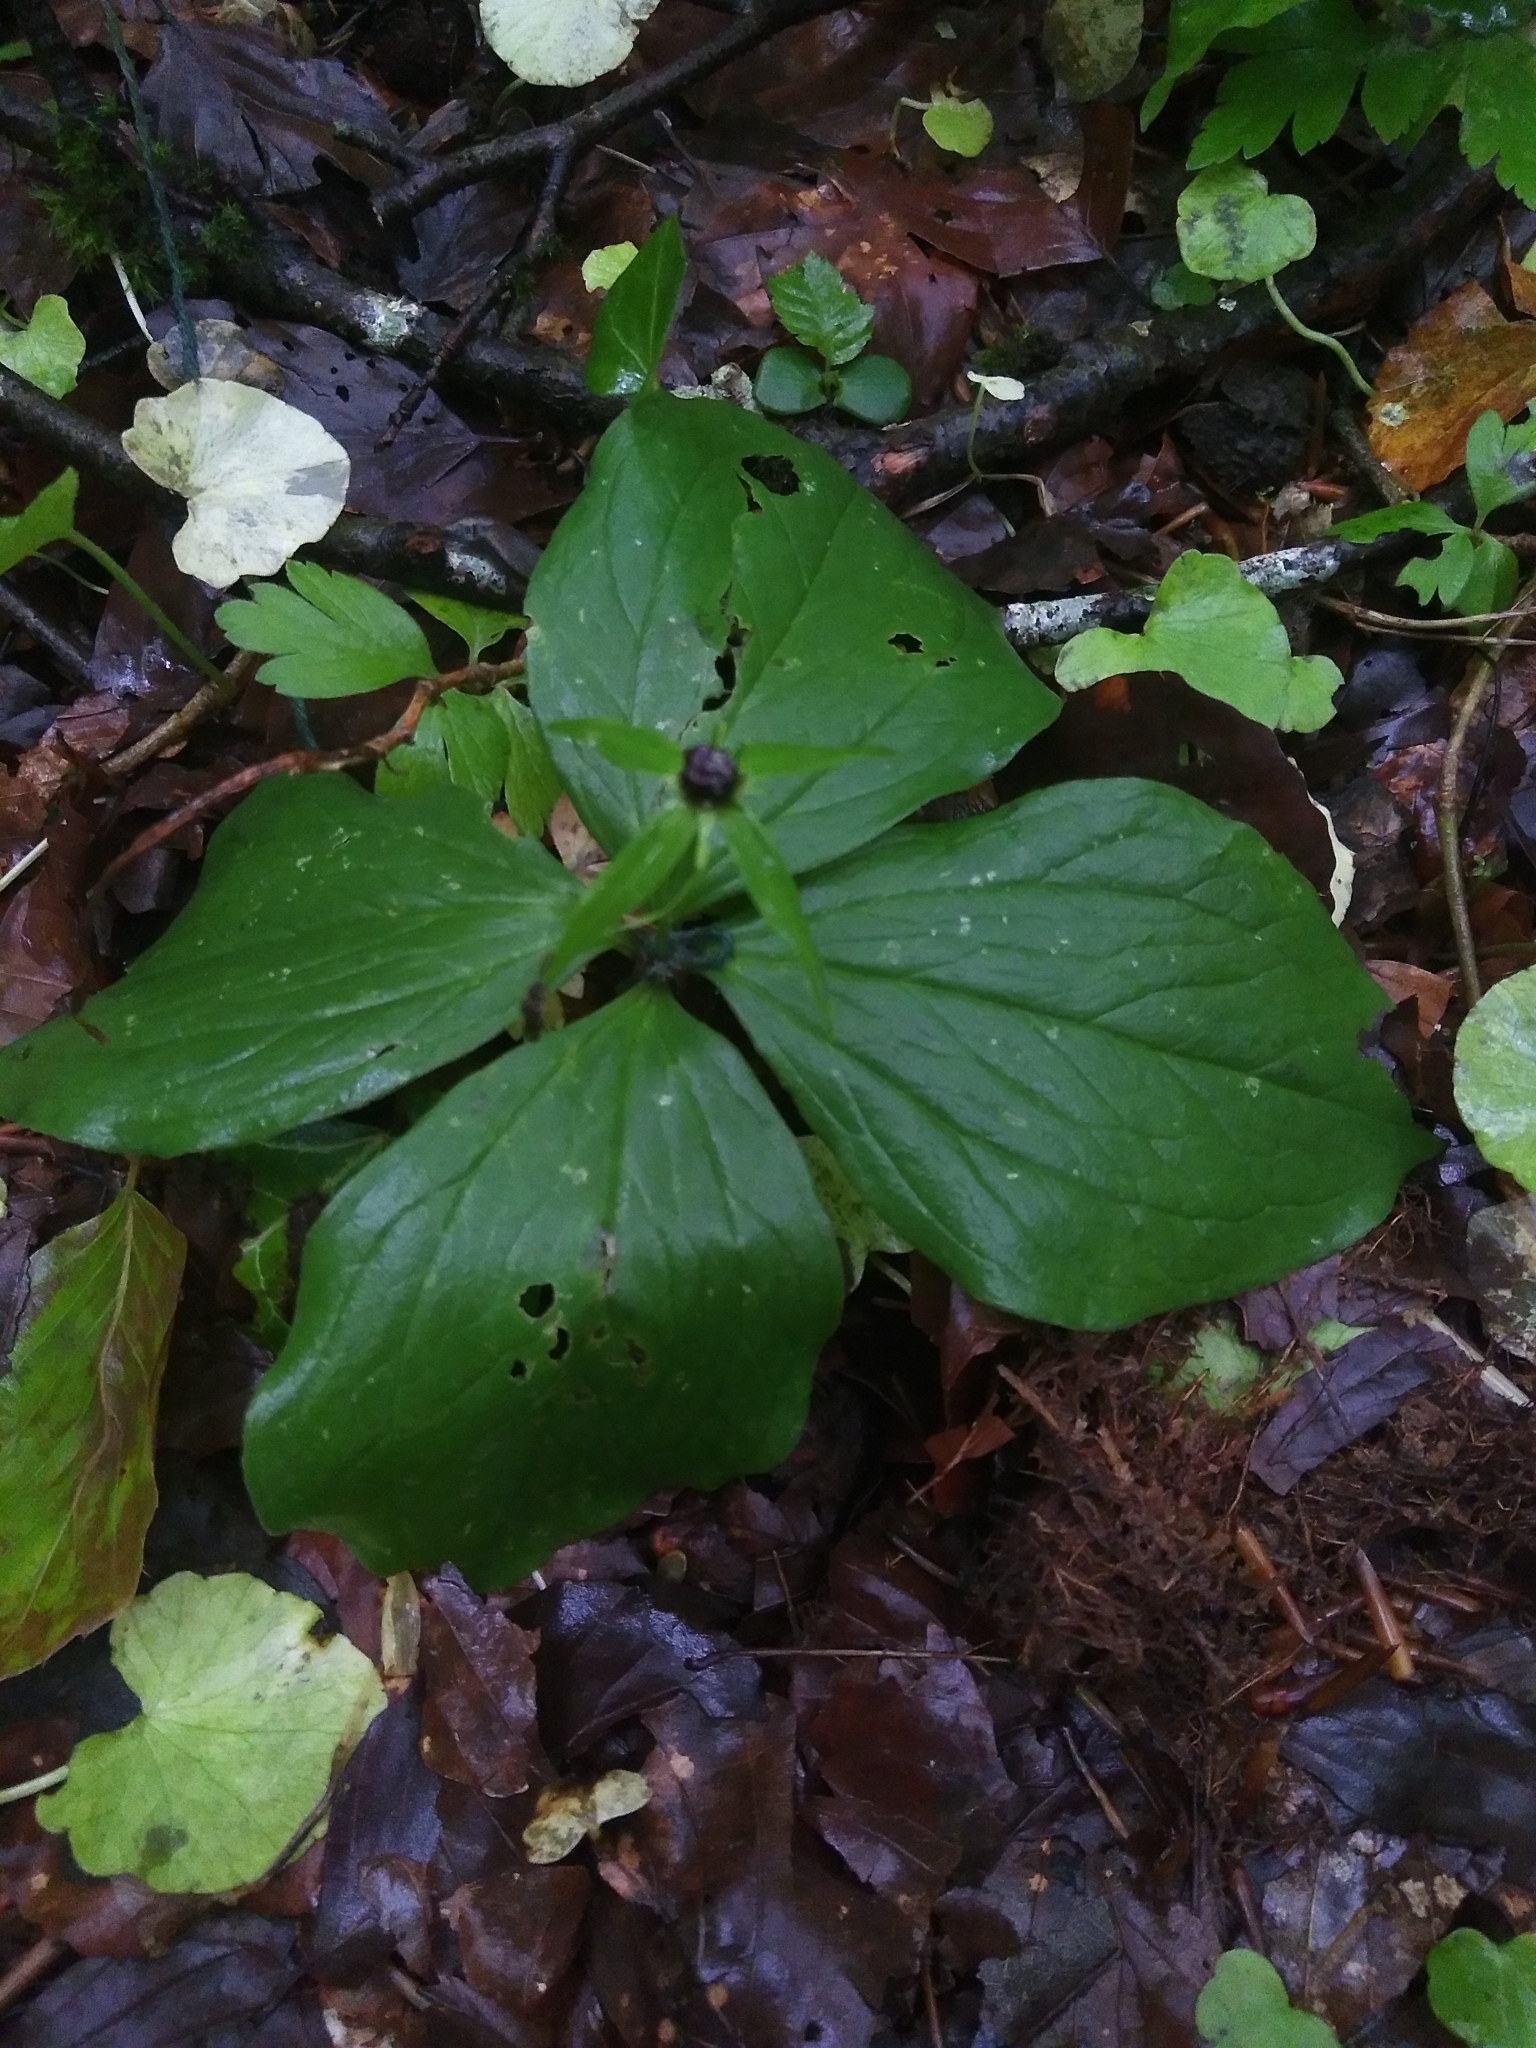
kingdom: Plantae
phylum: Tracheophyta
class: Liliopsida
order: Liliales
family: Melanthiaceae
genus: Paris
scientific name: Paris quadrifolia
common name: Herb-paris
